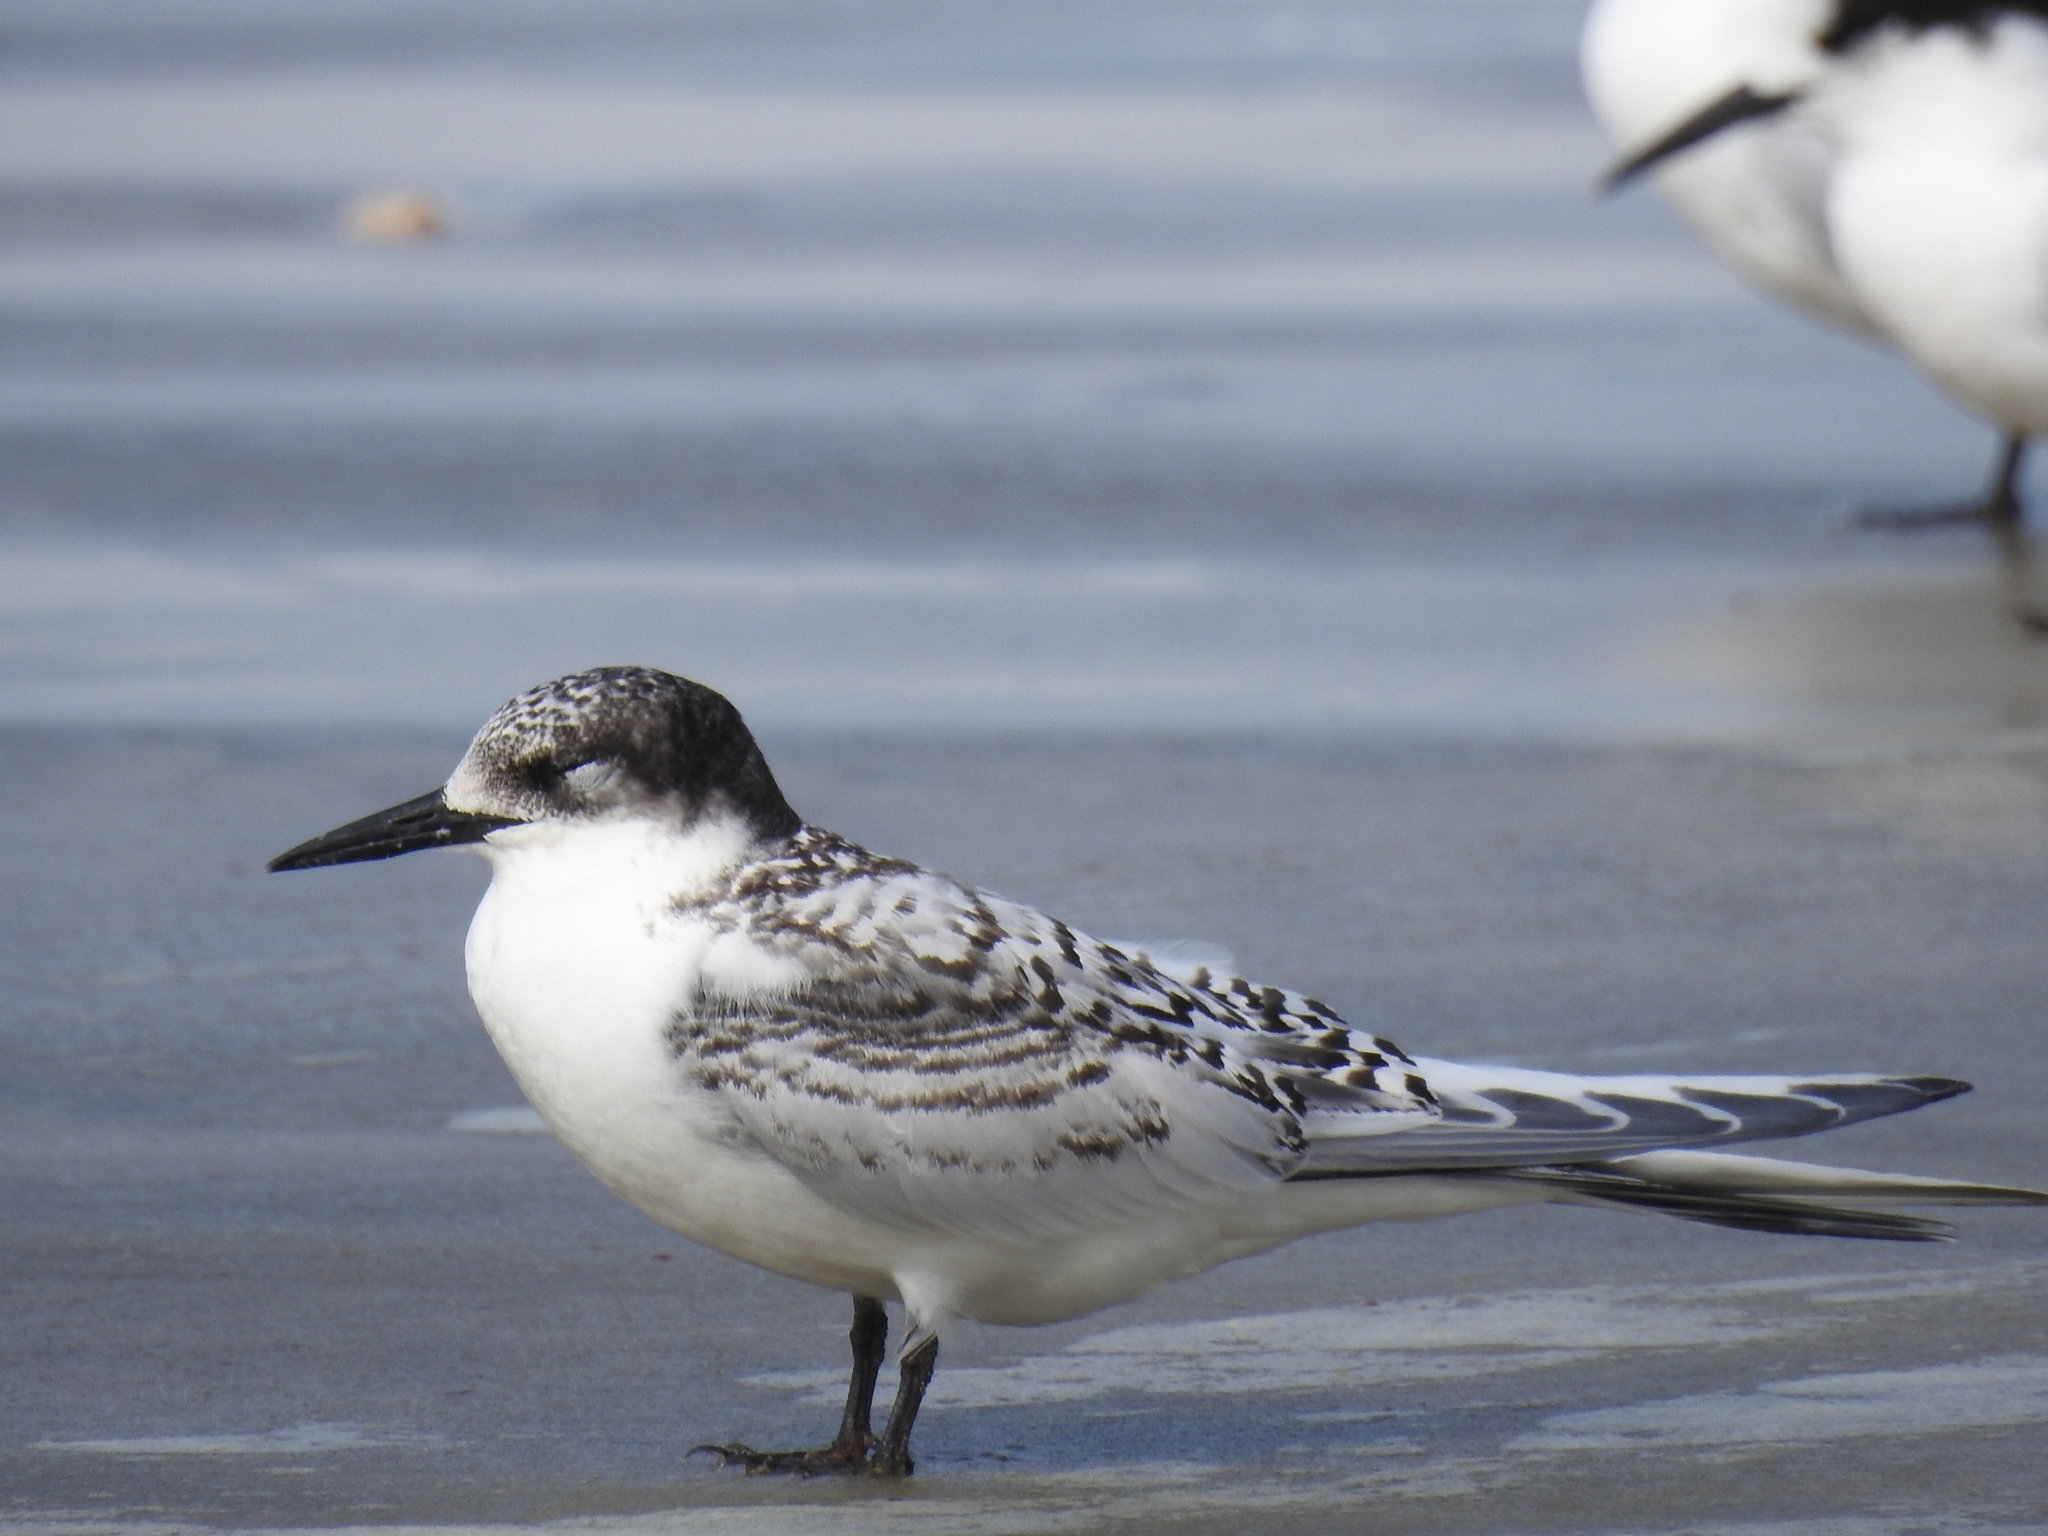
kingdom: Animalia
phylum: Chordata
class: Aves
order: Charadriiformes
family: Laridae
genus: Sterna
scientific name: Sterna striata
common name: White-fronted tern
